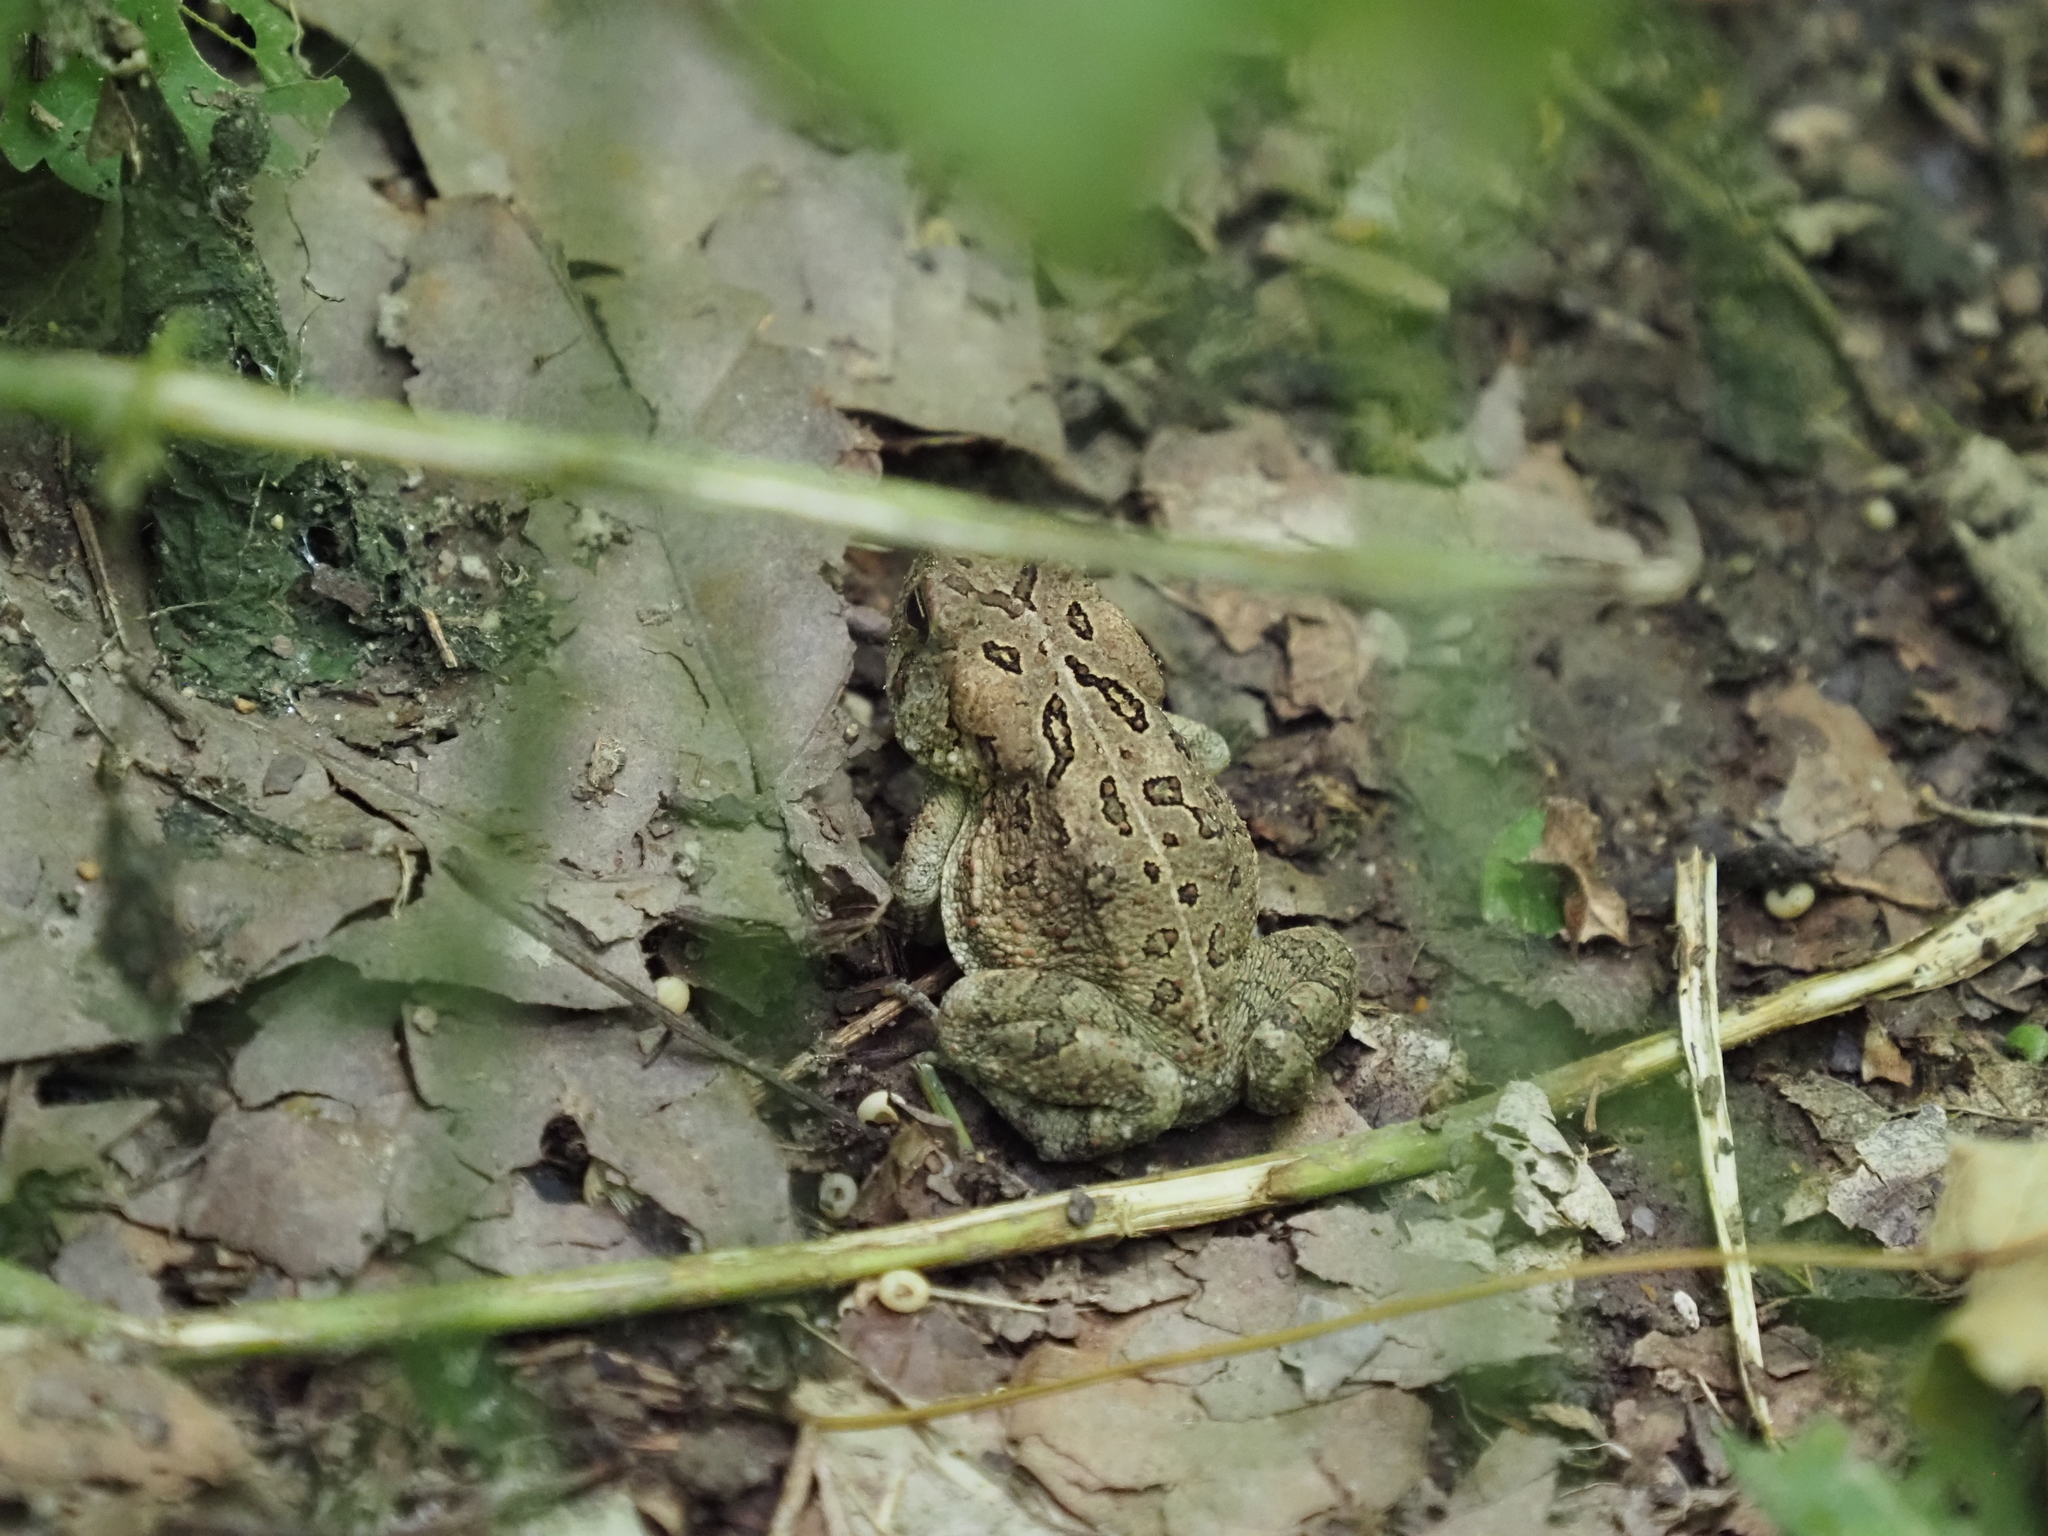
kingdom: Animalia
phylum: Chordata
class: Amphibia
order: Anura
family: Bufonidae
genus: Anaxyrus
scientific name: Anaxyrus fowleri
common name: Fowler's toad
